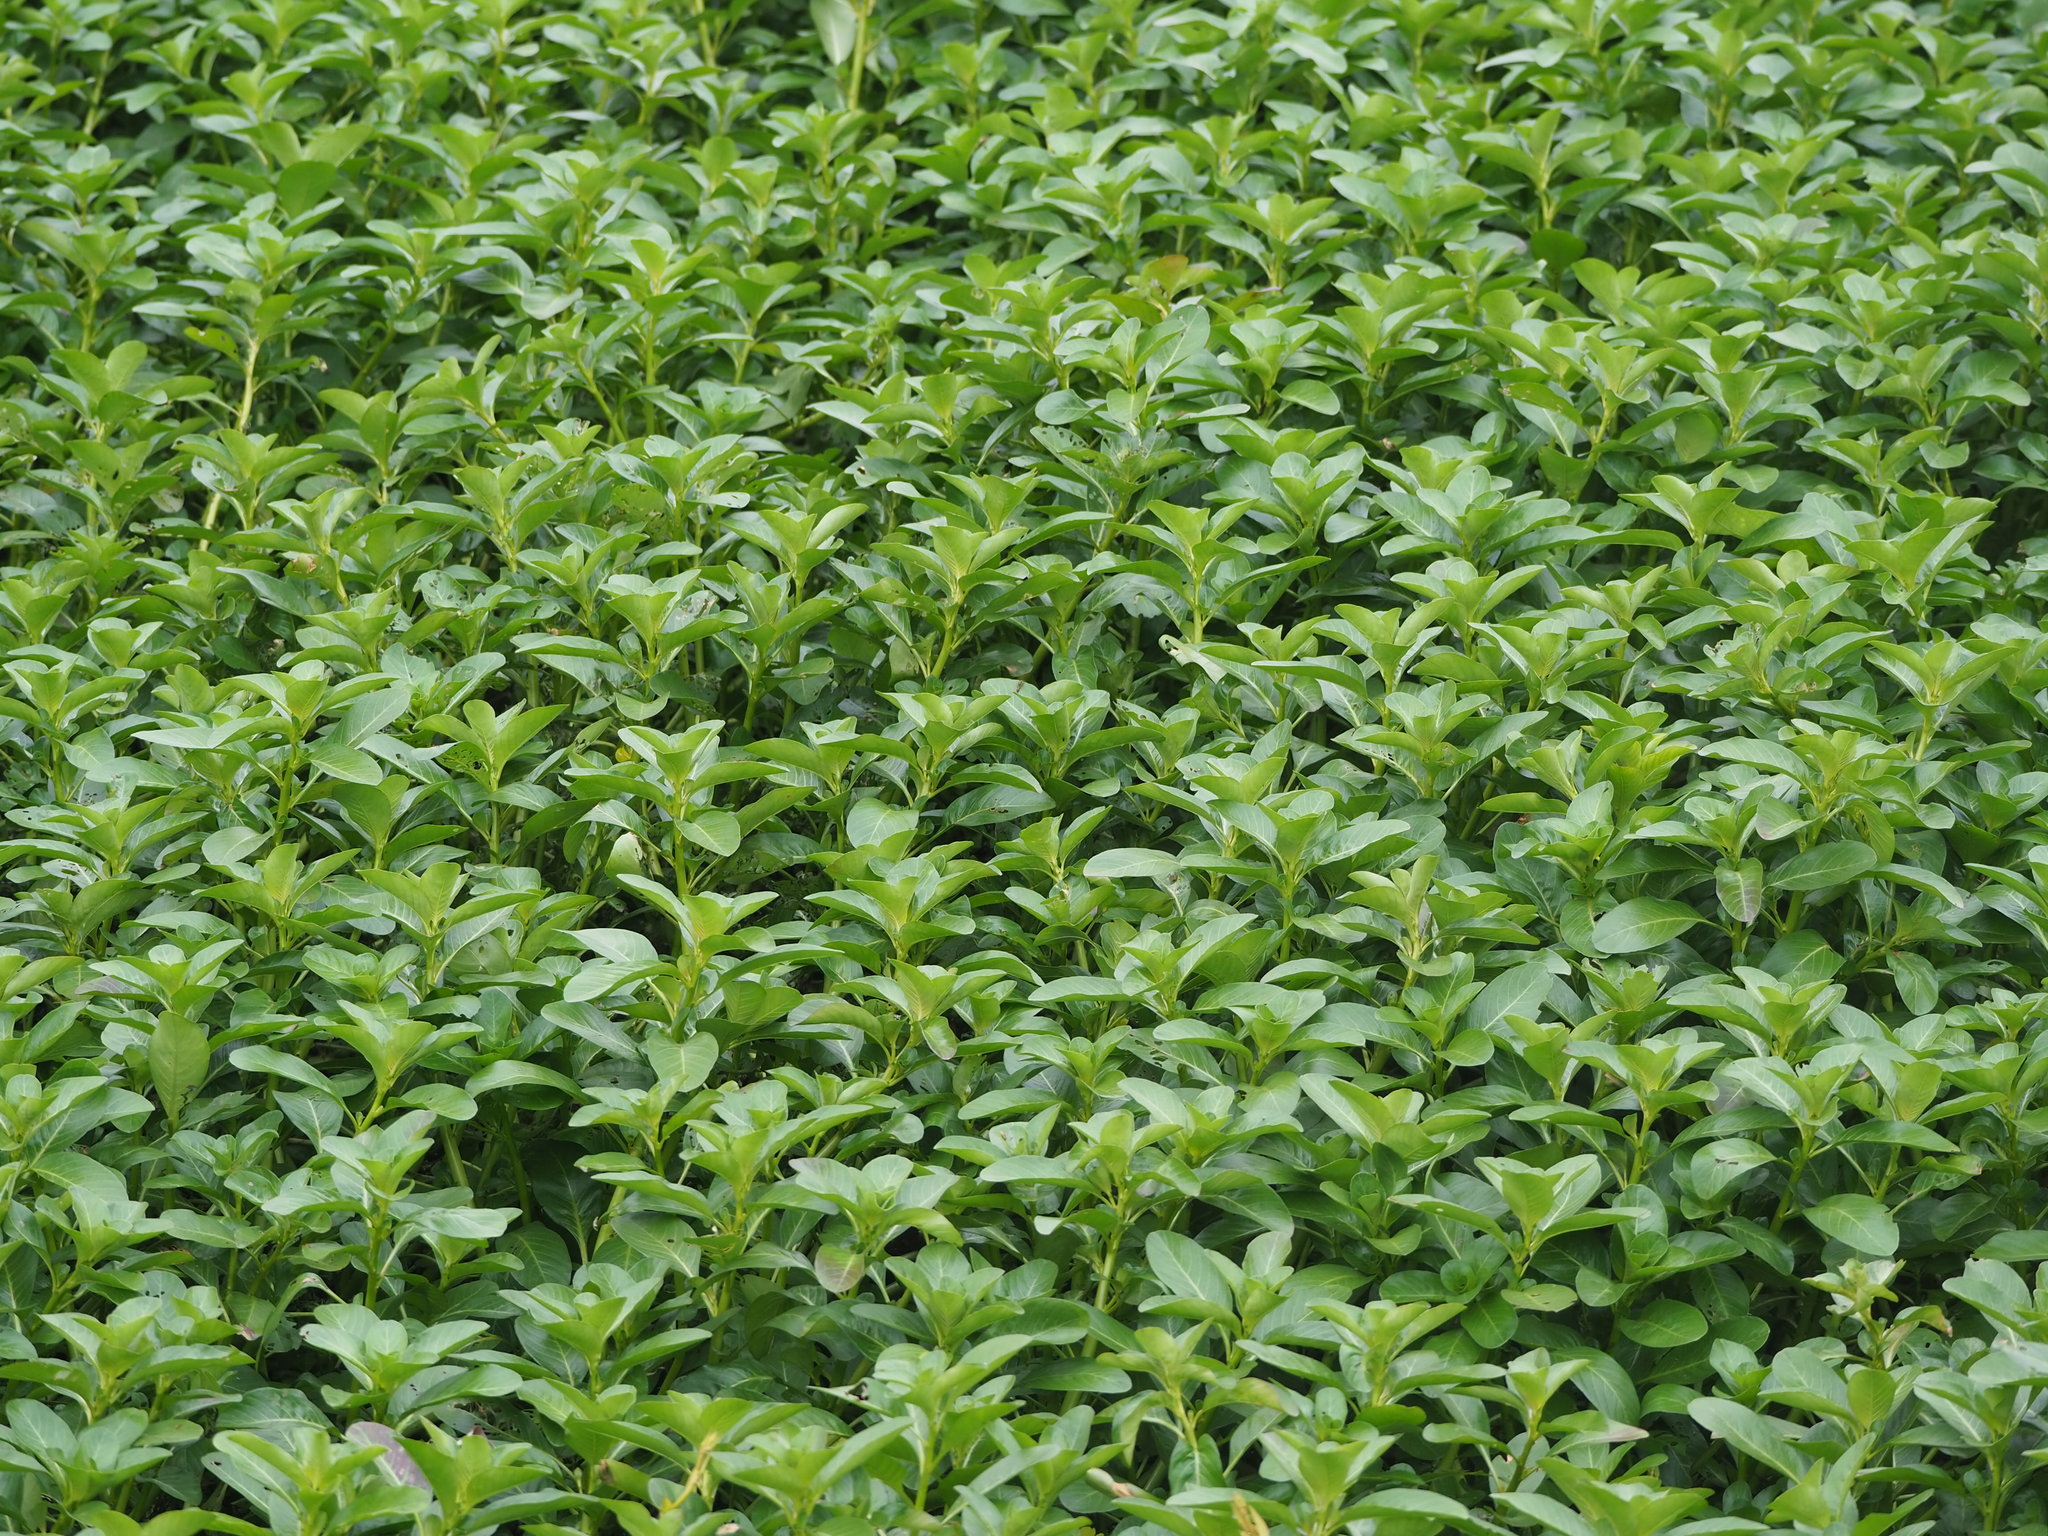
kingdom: Plantae
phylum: Tracheophyta
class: Magnoliopsida
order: Myrtales
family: Onagraceae
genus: Ludwigia
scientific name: Ludwigia taiwanensis
